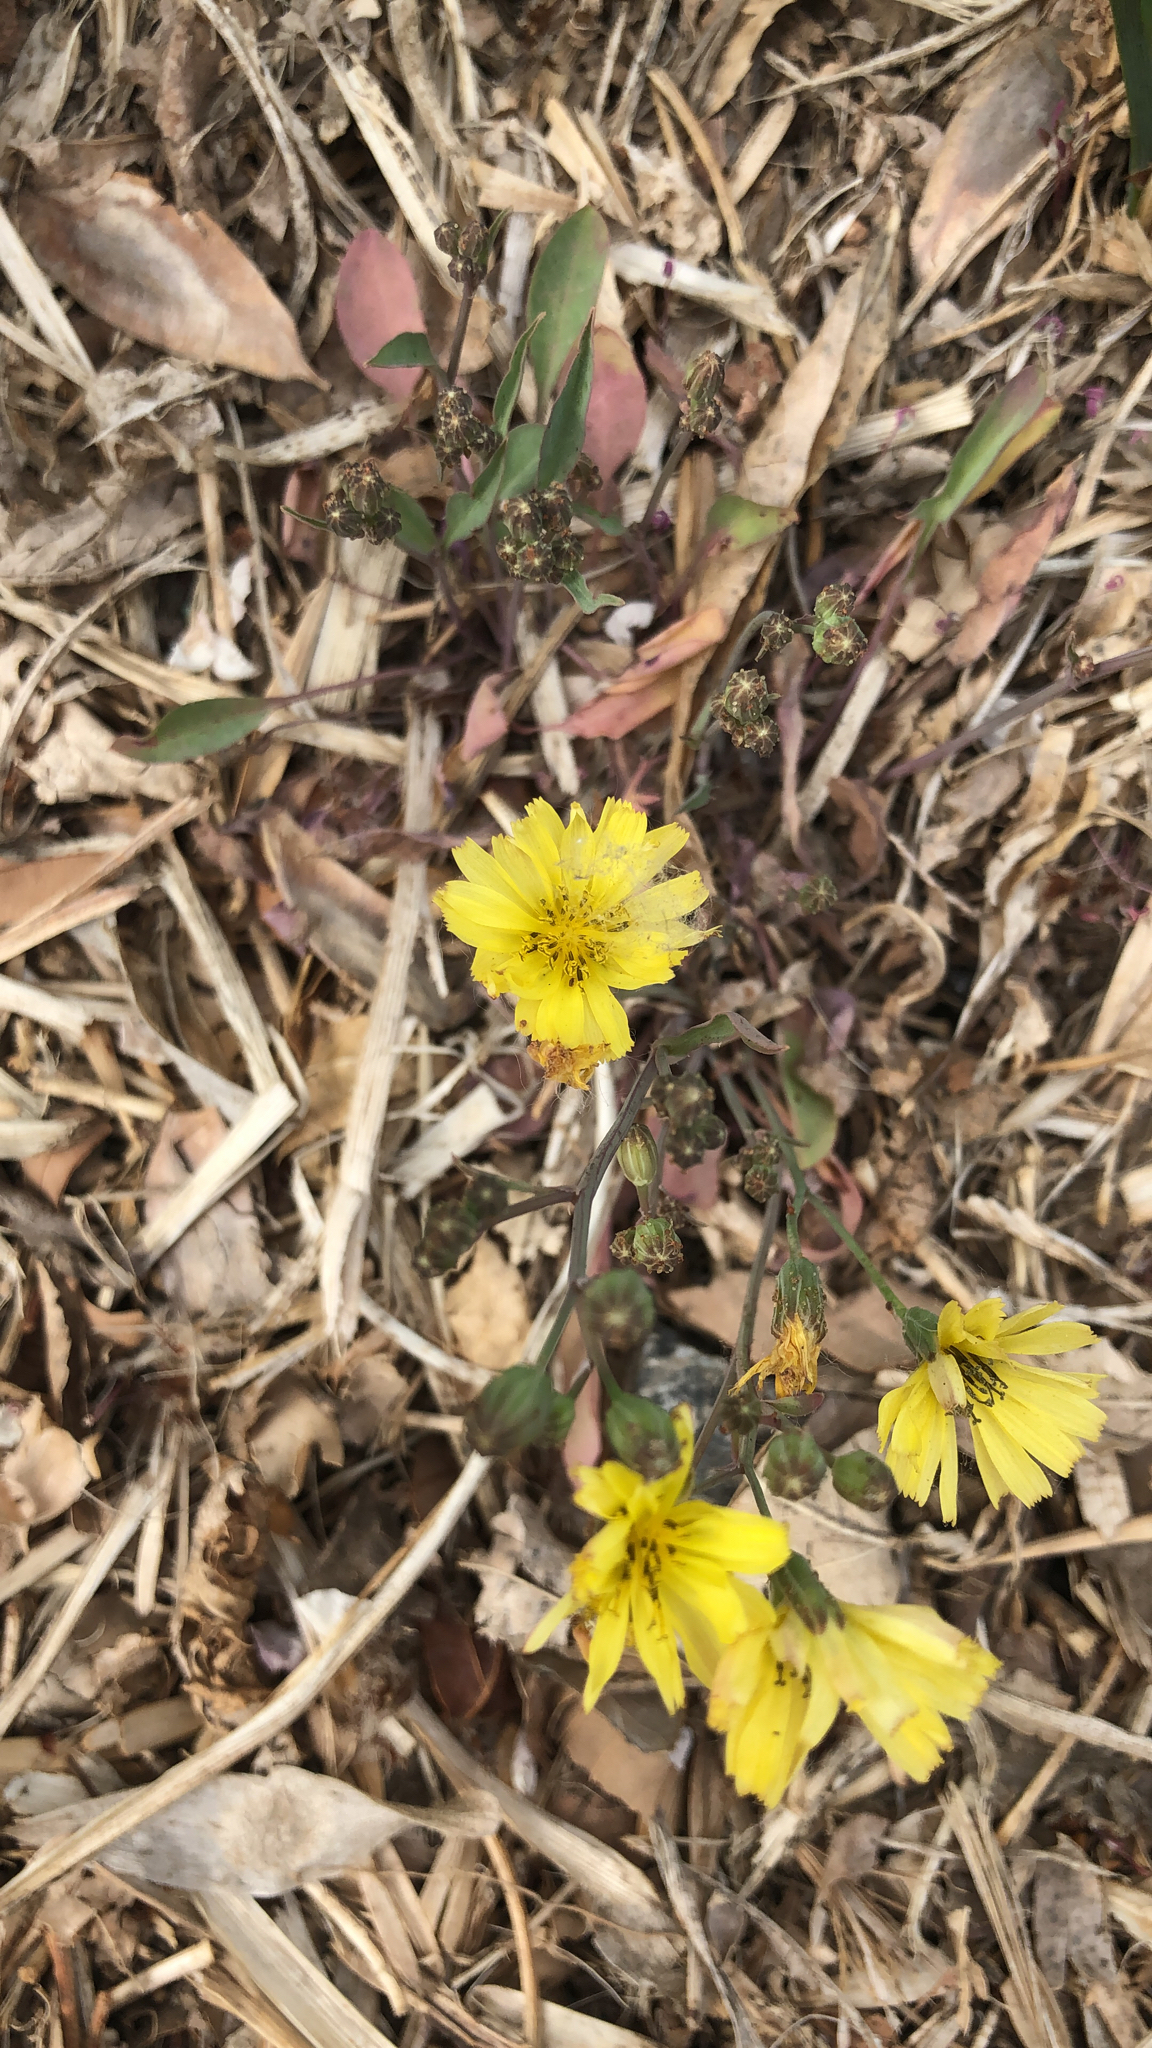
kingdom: Plantae
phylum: Tracheophyta
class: Magnoliopsida
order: Asterales
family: Asteraceae
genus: Ixeris
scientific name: Ixeris chinensis
